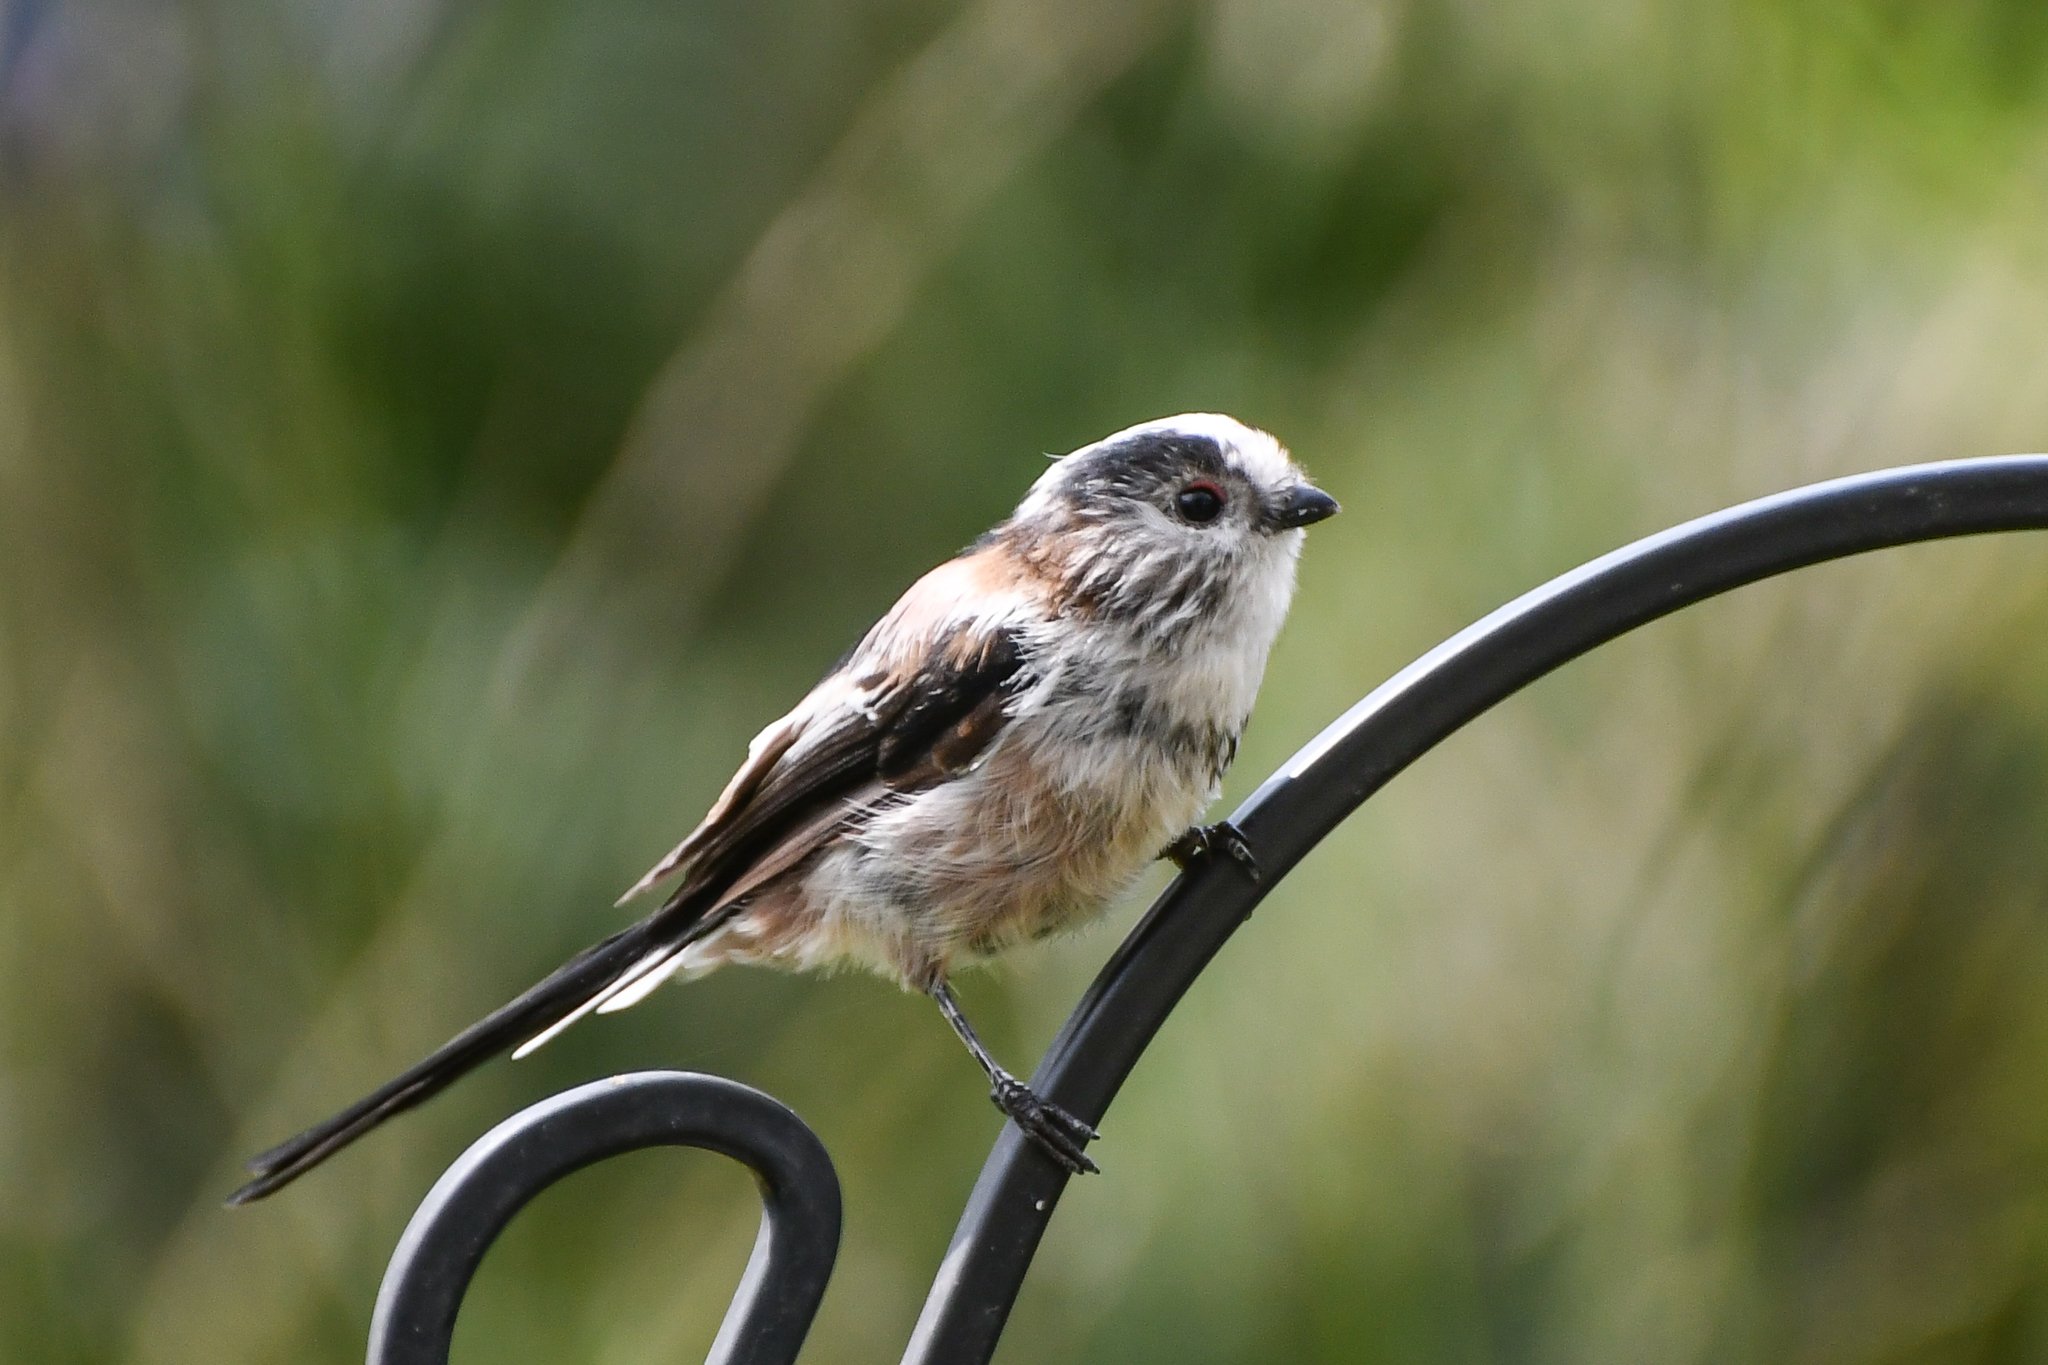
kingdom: Animalia
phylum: Chordata
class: Aves
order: Passeriformes
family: Aegithalidae
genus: Aegithalos
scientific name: Aegithalos caudatus
